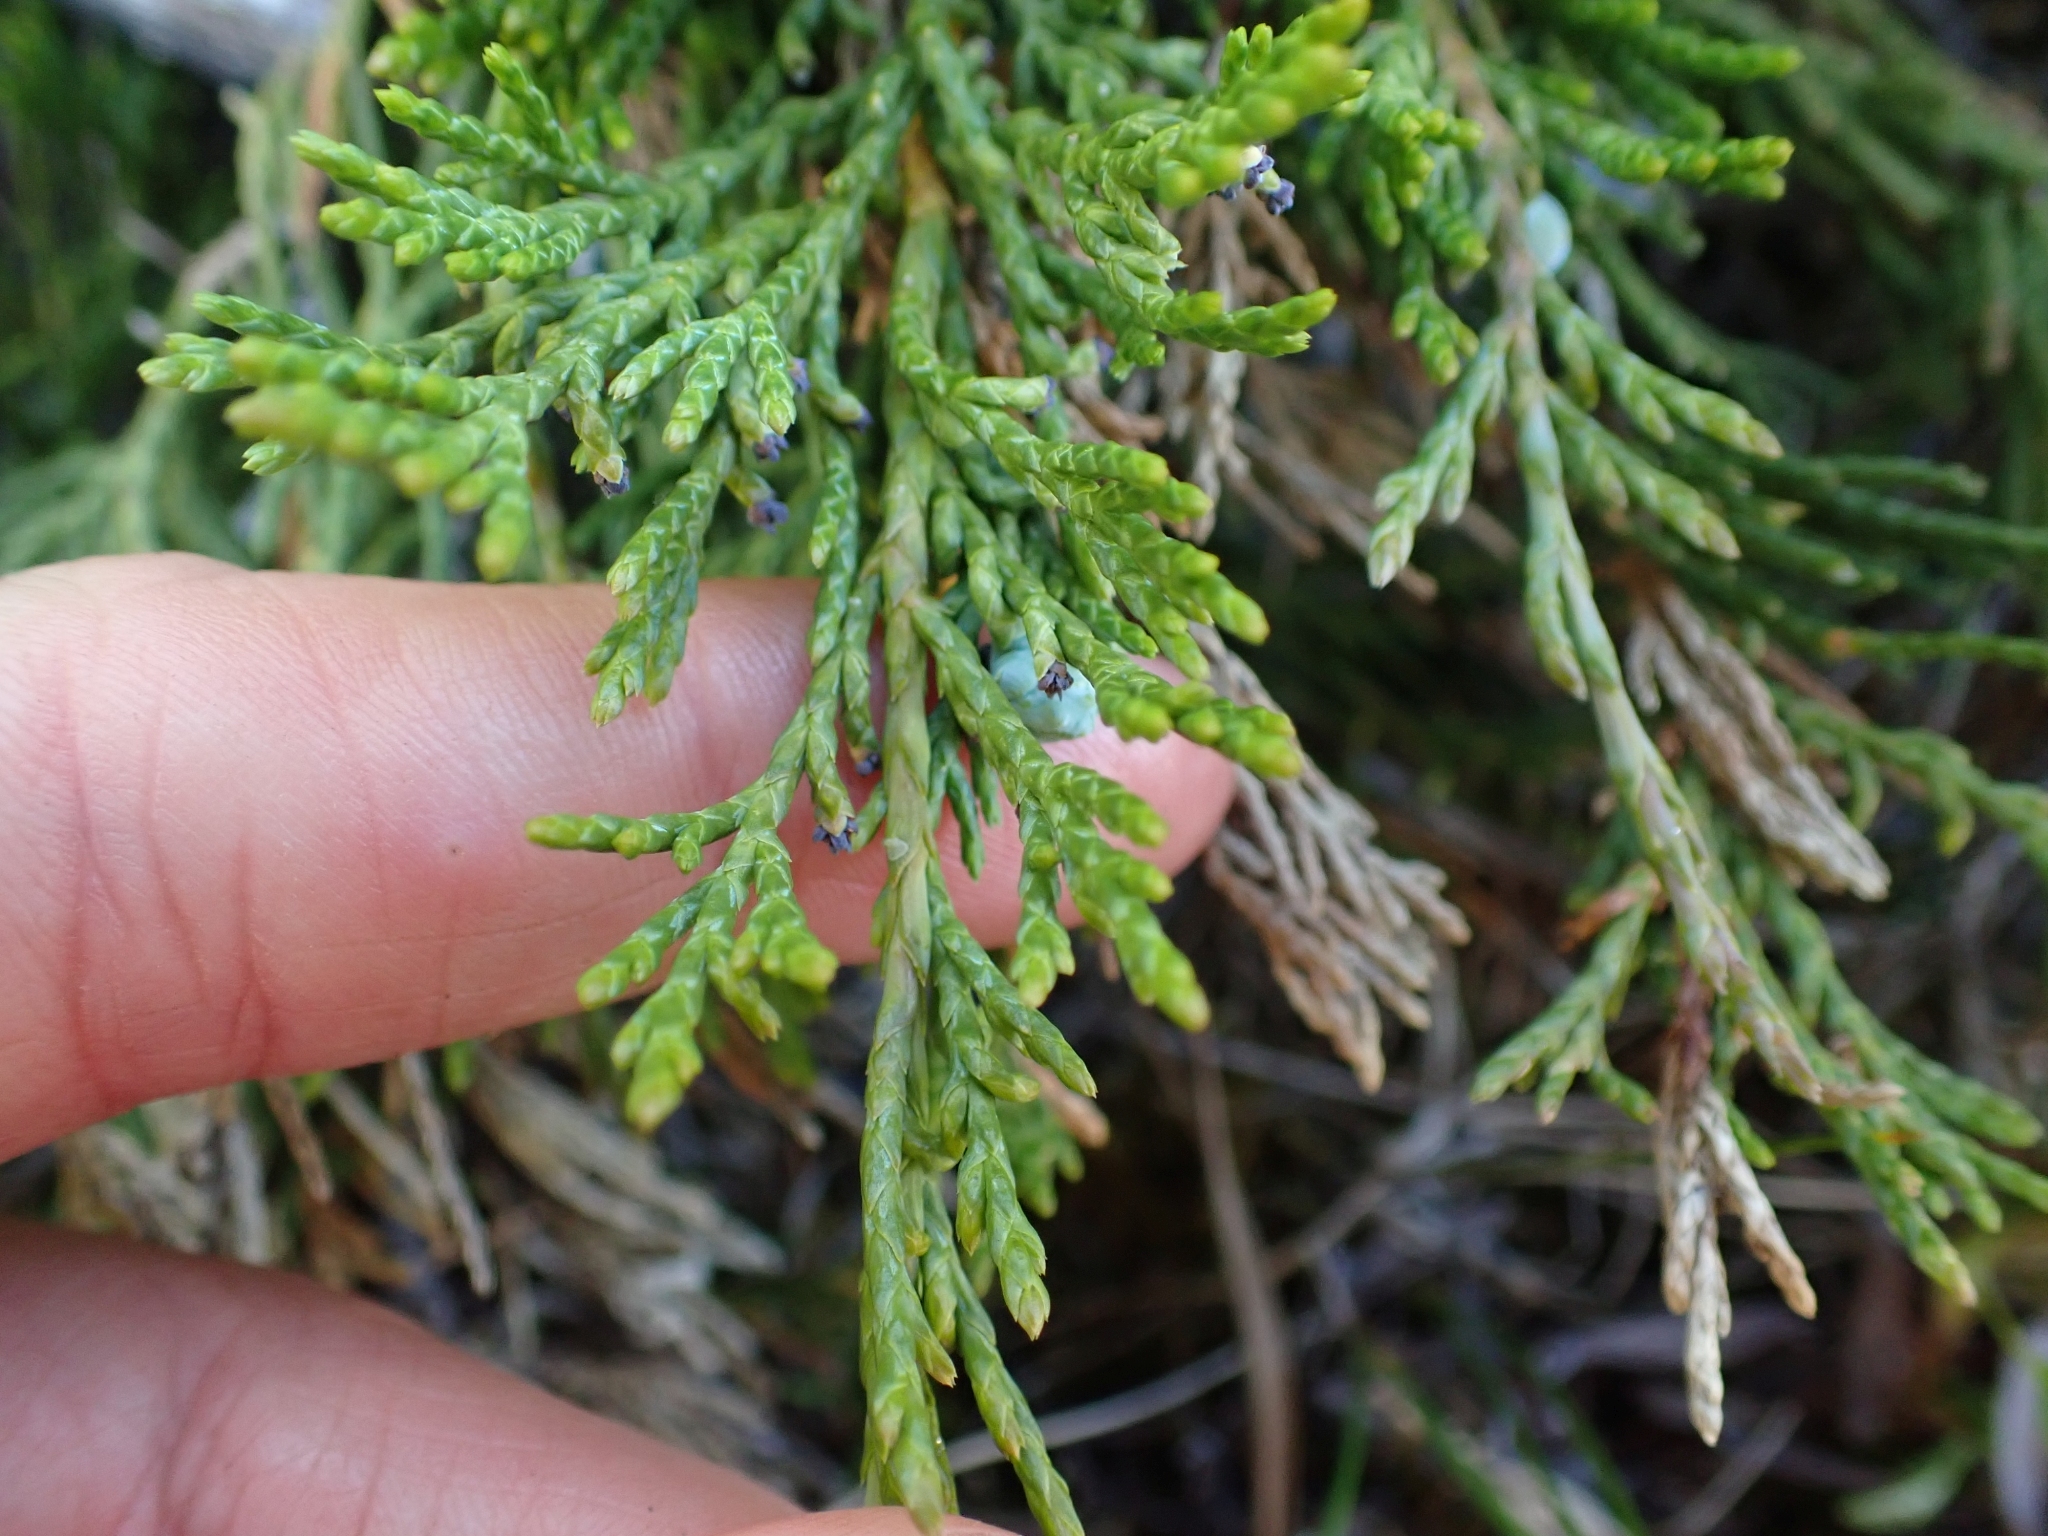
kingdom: Plantae
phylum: Tracheophyta
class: Pinopsida
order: Pinales
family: Cupressaceae
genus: Juniperus
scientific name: Juniperus horizontalis
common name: Creeping juniper
